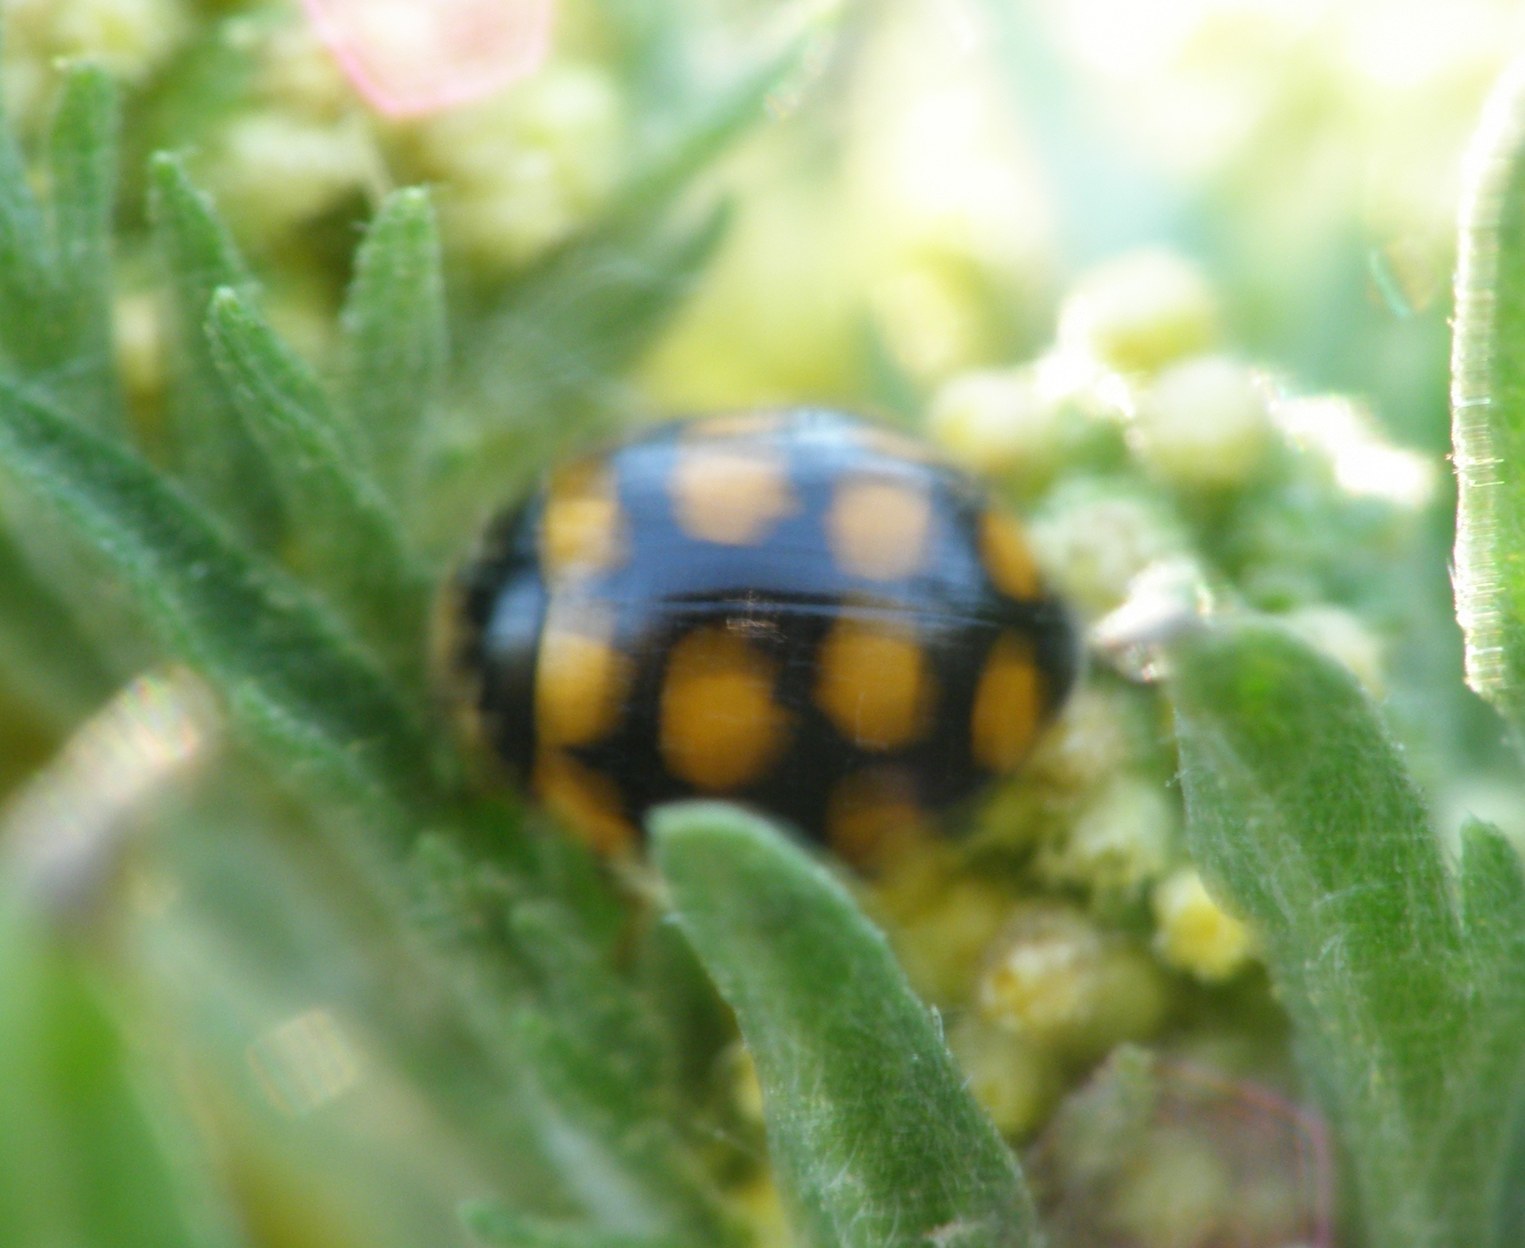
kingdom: Animalia
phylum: Arthropoda
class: Insecta
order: Coleoptera
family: Coccinellidae
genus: Coccinula
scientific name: Coccinula quatuordecimpustulata
